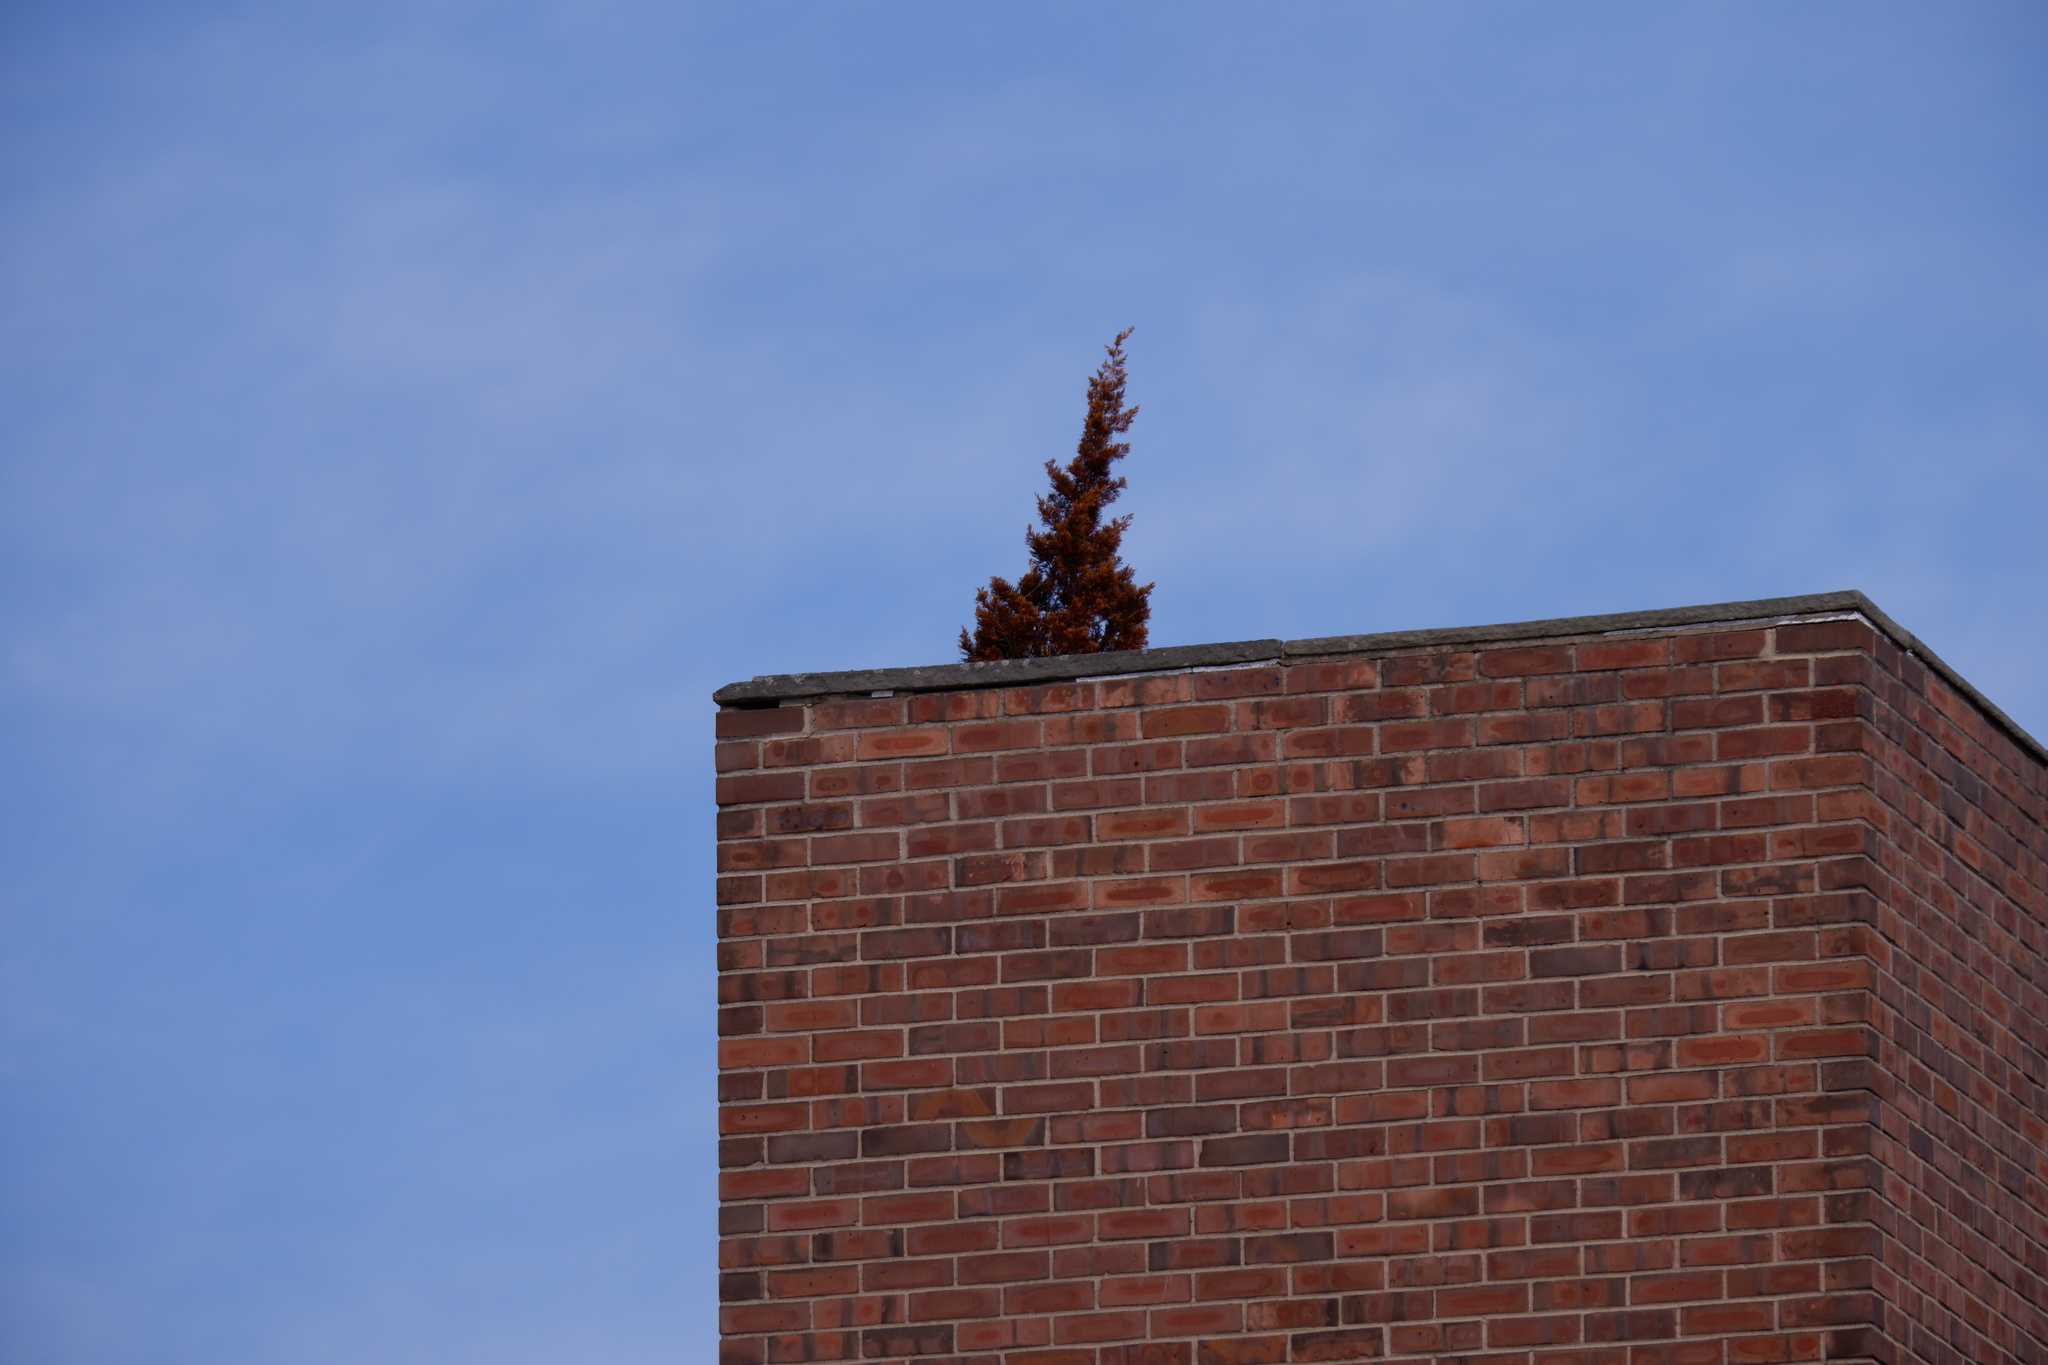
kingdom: Plantae
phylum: Tracheophyta
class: Pinopsida
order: Pinales
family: Cupressaceae
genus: Juniperus
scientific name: Juniperus virginiana
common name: Red juniper
